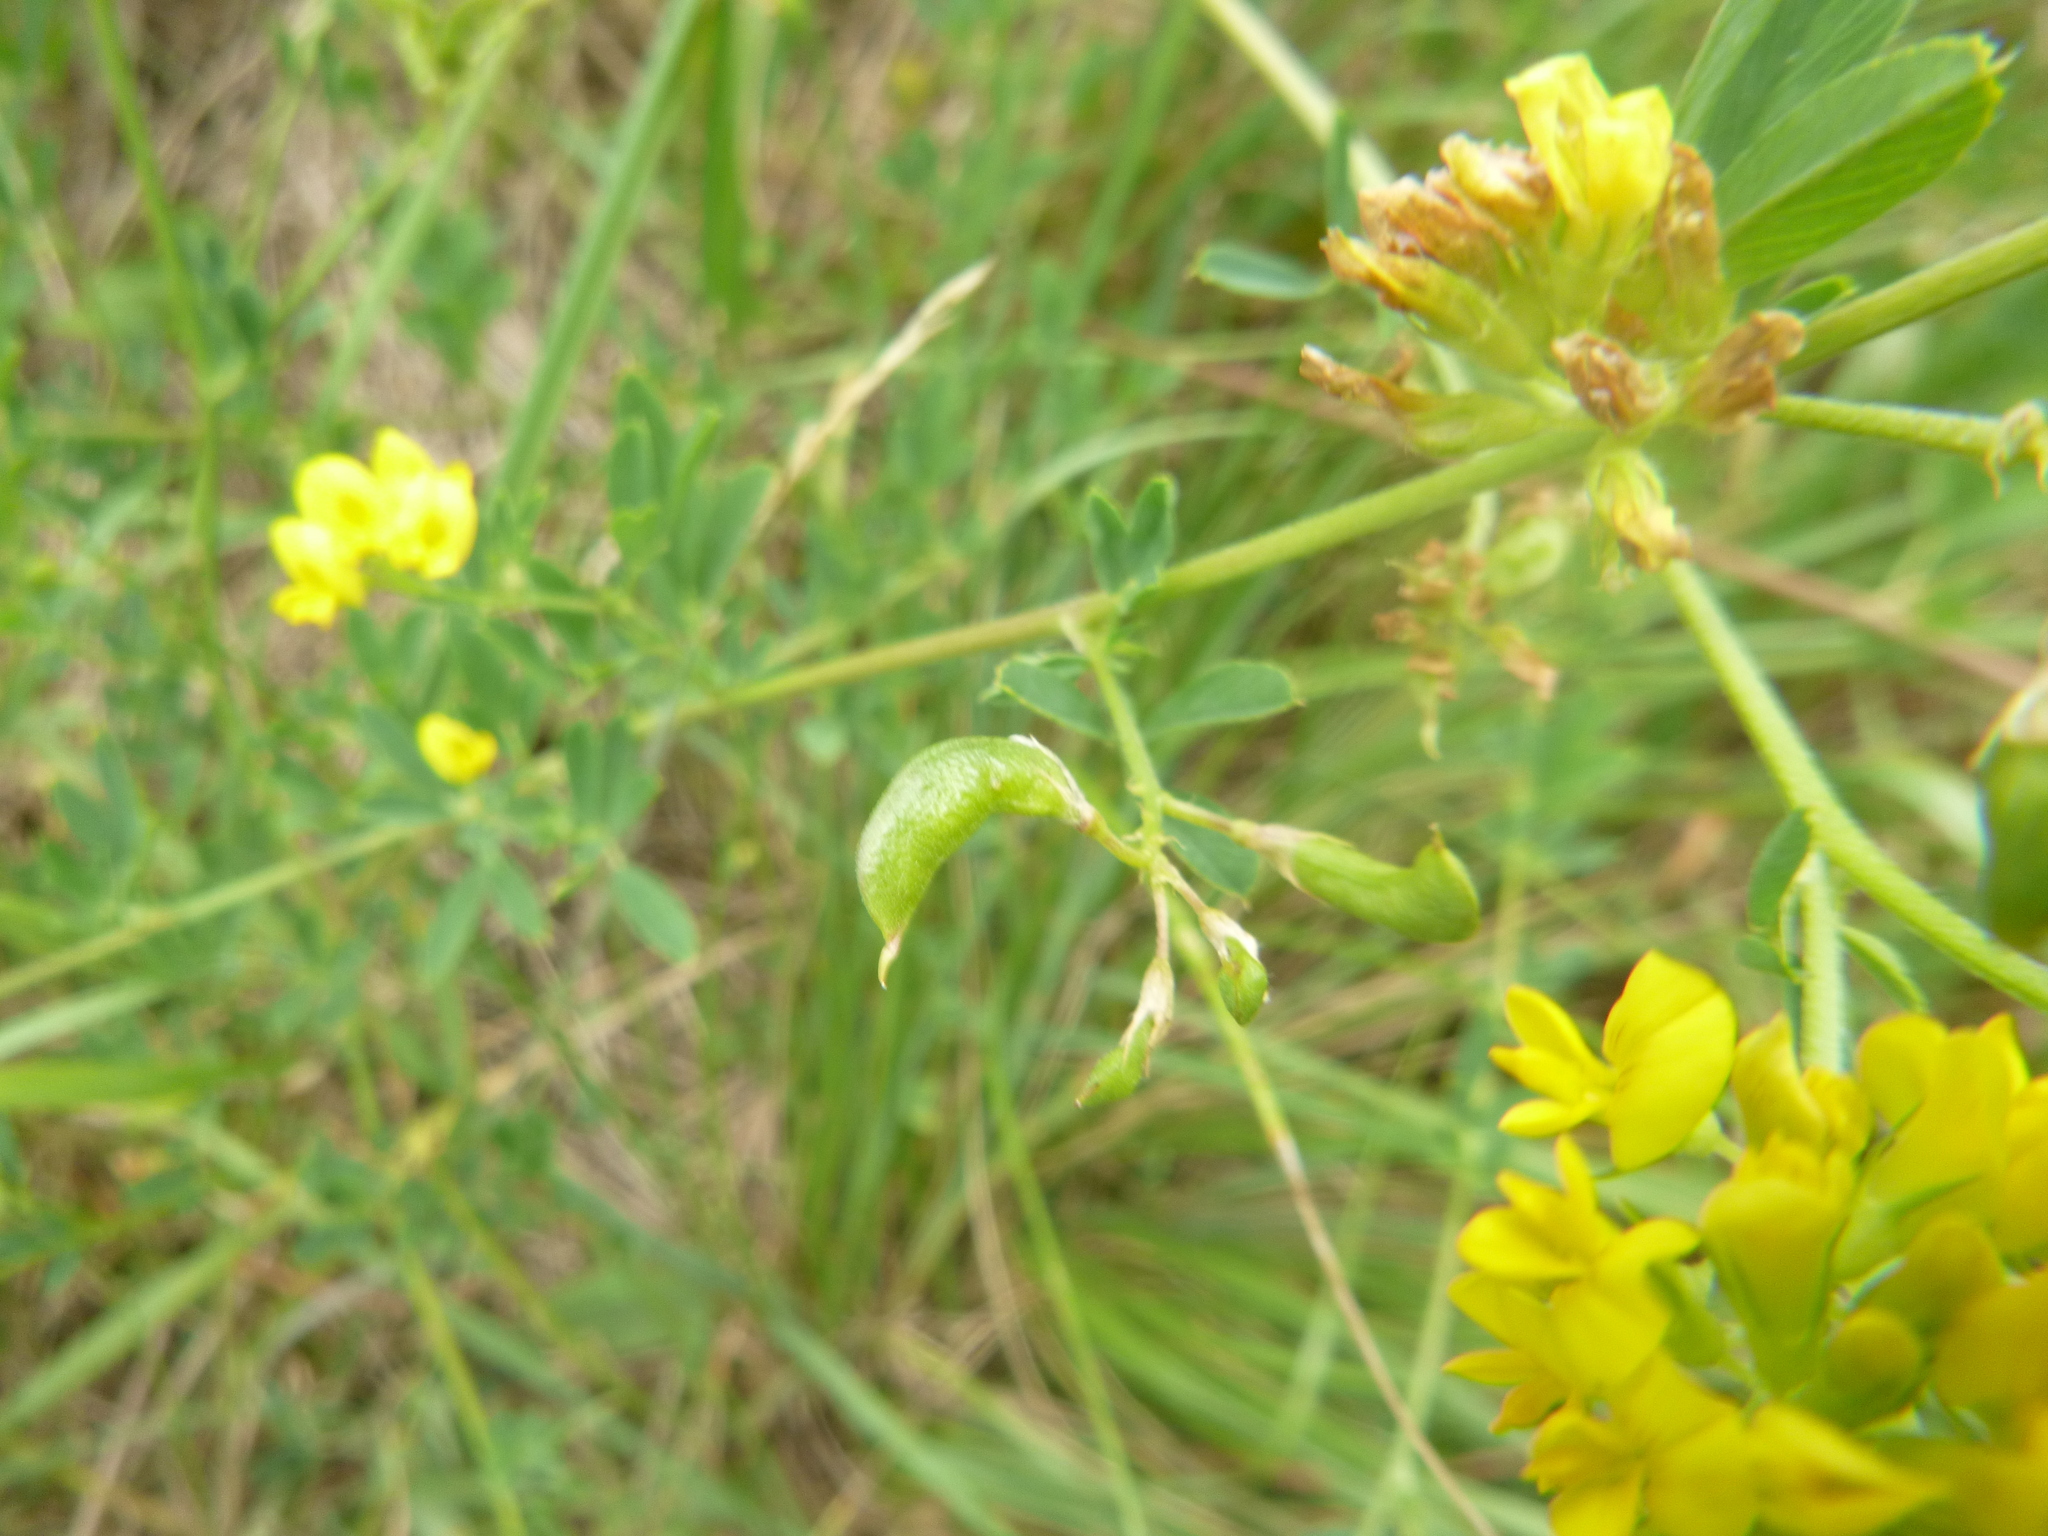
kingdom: Plantae
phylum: Tracheophyta
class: Magnoliopsida
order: Fabales
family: Fabaceae
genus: Medicago
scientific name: Medicago falcata
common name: Sickle medick
